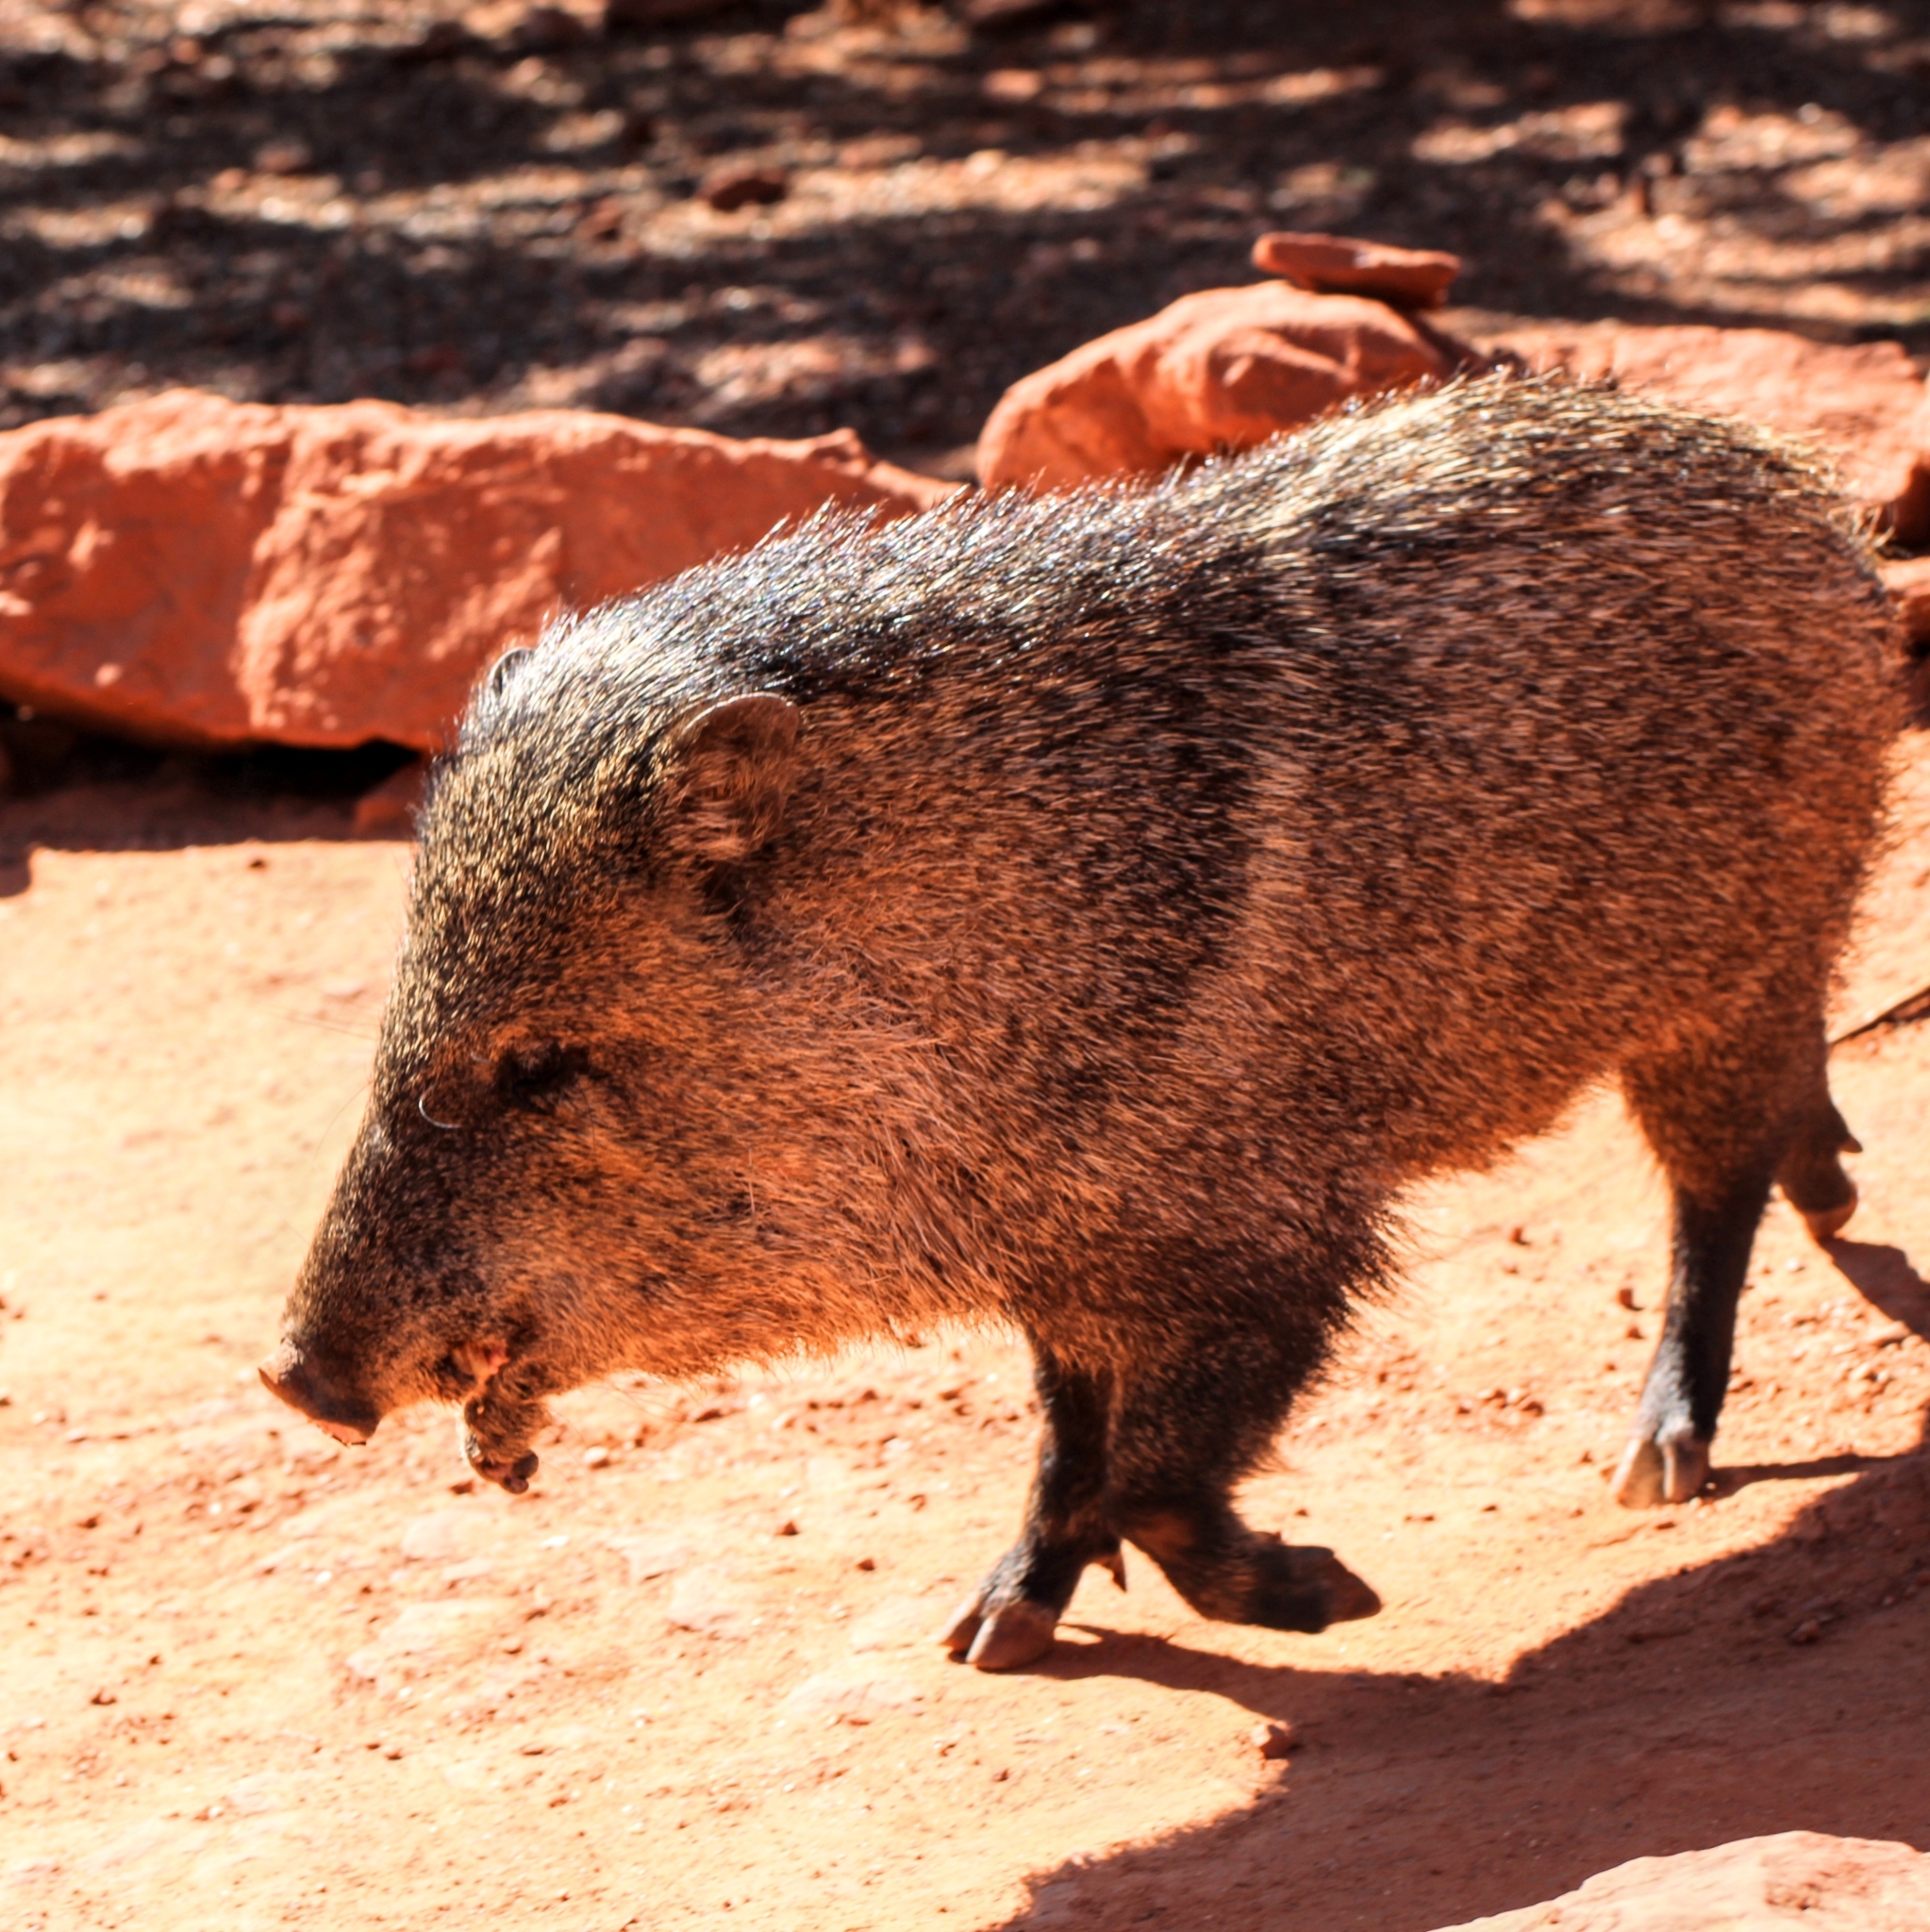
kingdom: Animalia
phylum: Chordata
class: Mammalia
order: Artiodactyla
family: Tayassuidae
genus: Pecari
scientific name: Pecari tajacu
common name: Collared peccary
